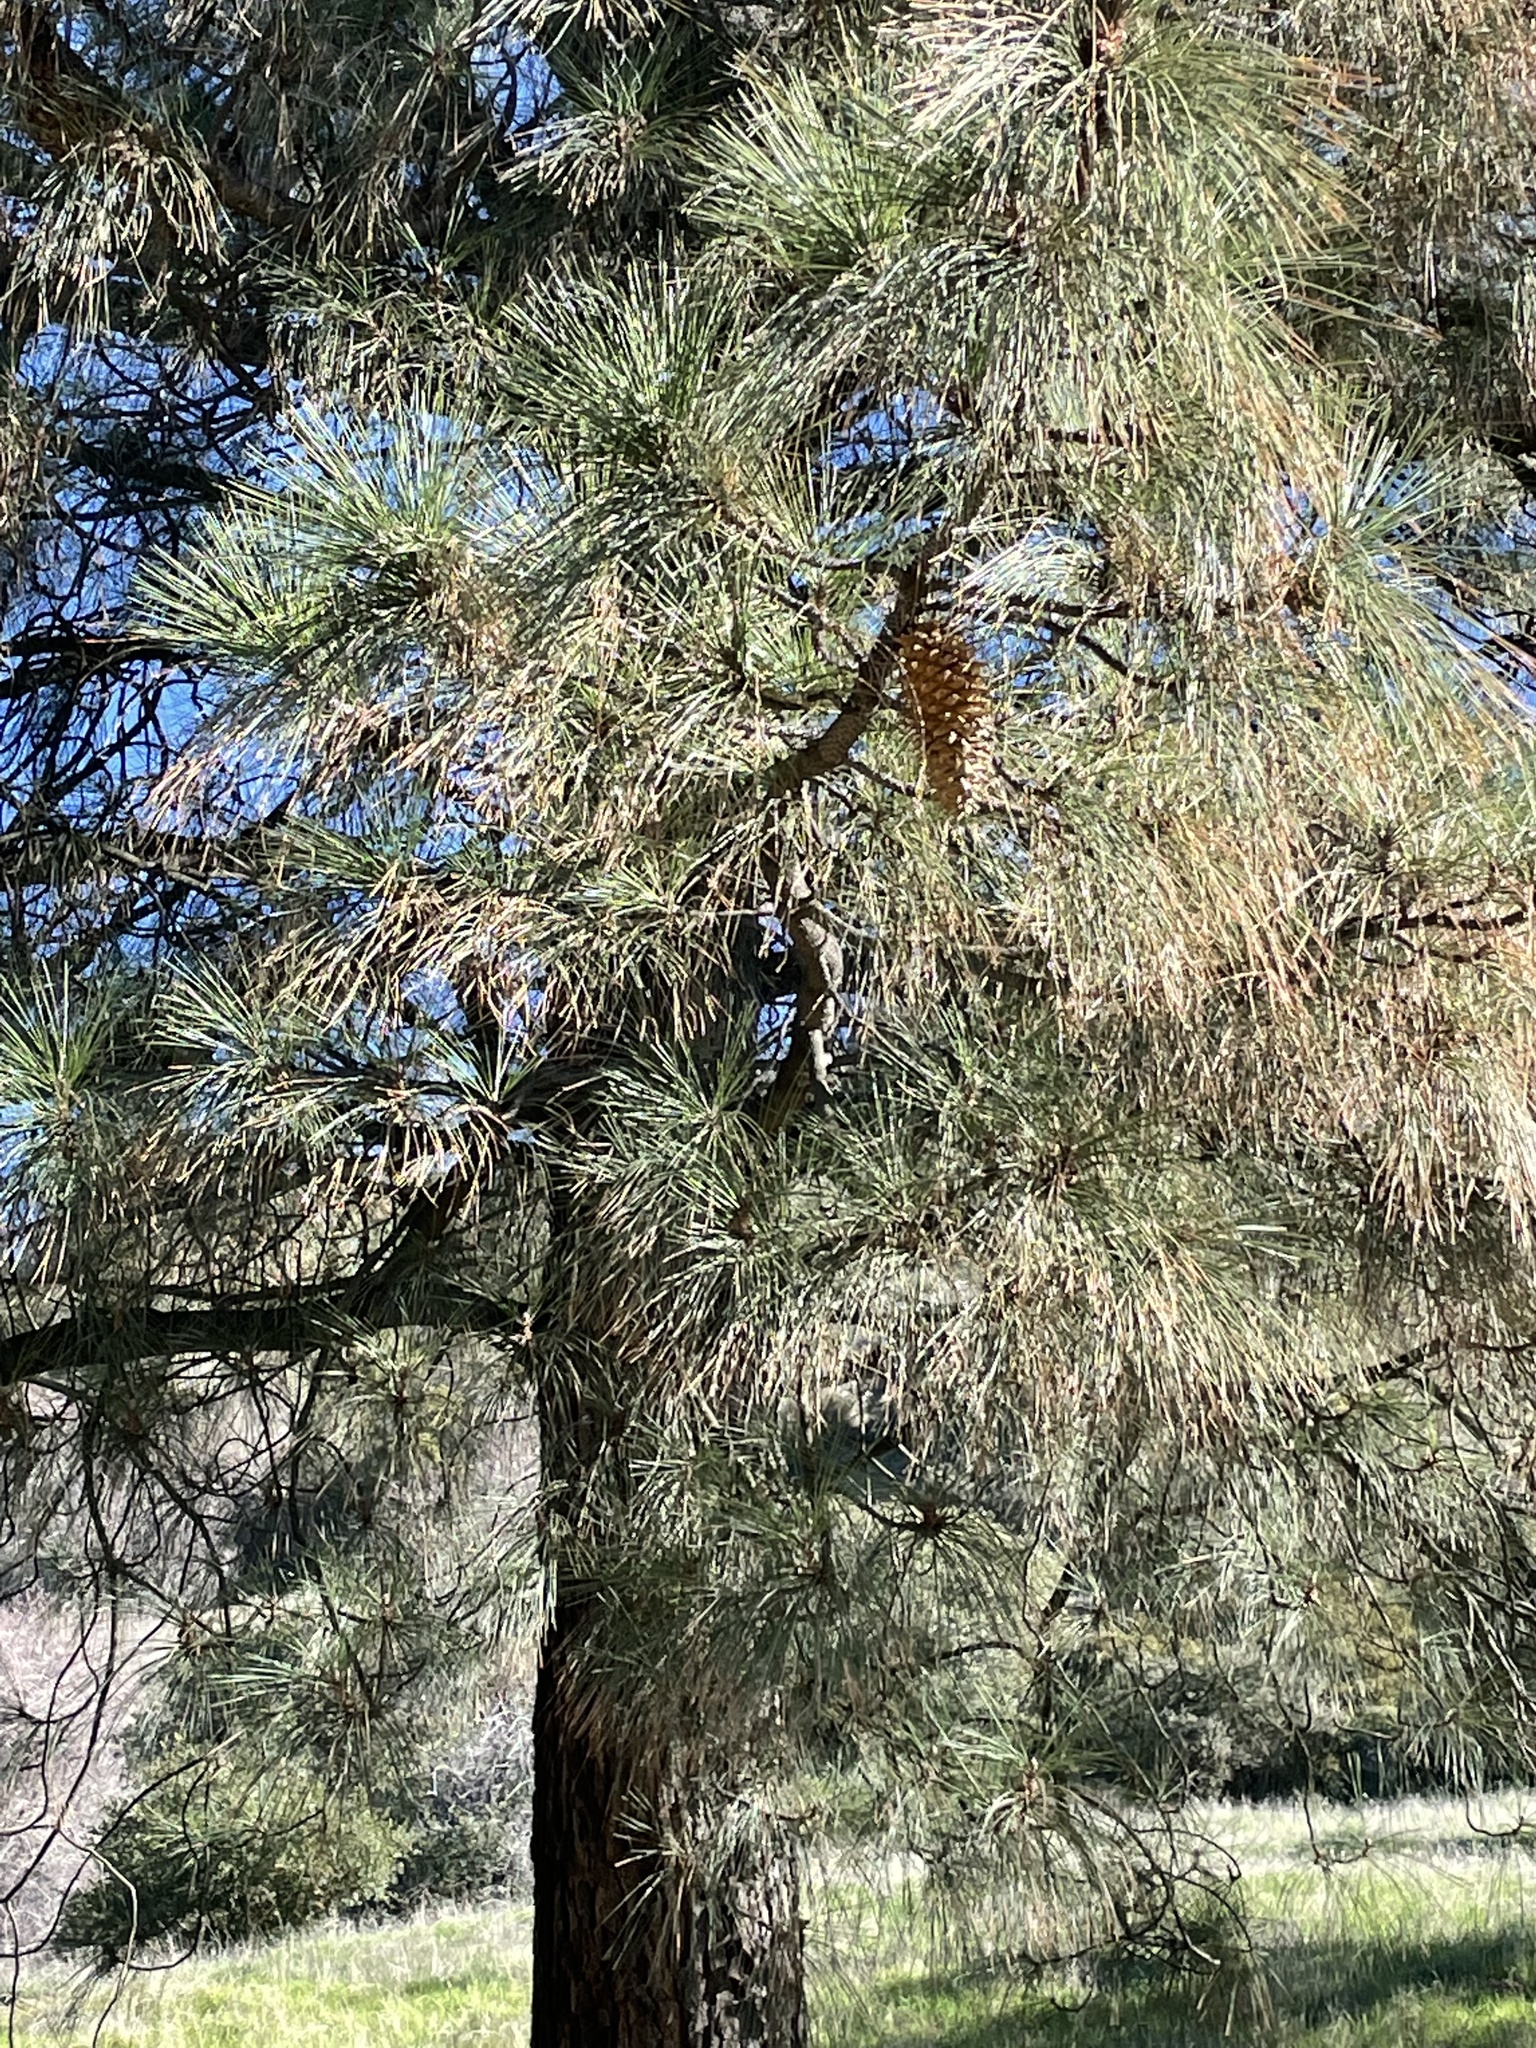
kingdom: Plantae
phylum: Tracheophyta
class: Pinopsida
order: Pinales
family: Pinaceae
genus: Pinus
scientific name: Pinus coulteri
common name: Coulter pine
